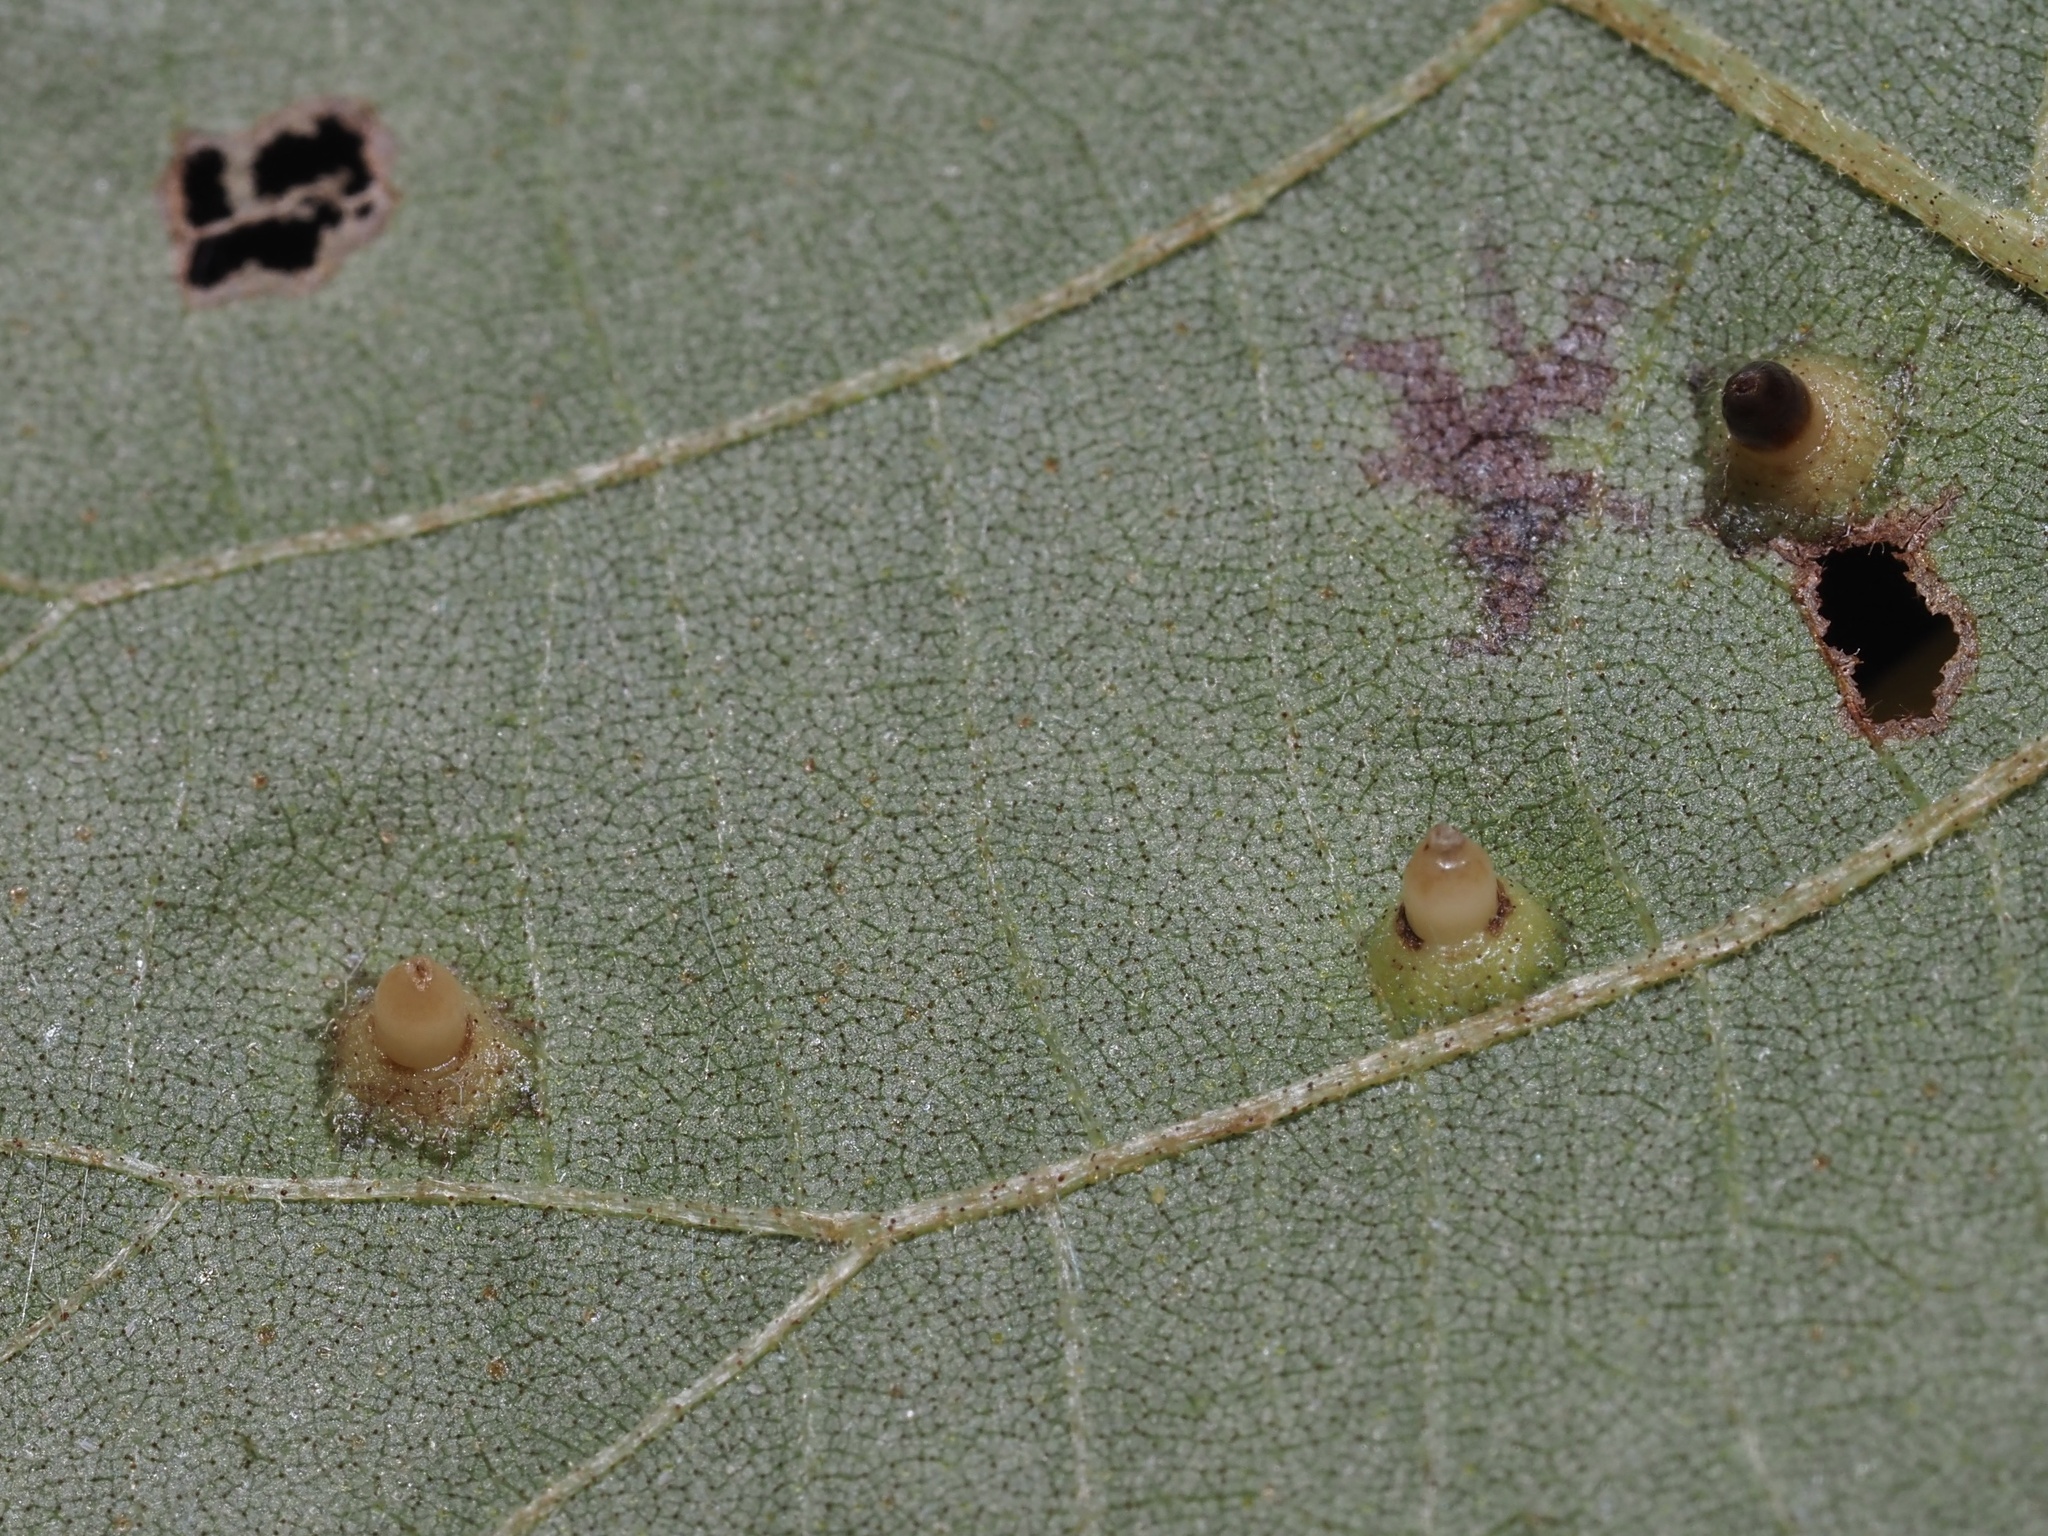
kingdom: Animalia
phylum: Arthropoda
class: Insecta
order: Diptera
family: Cecidomyiidae
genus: Caryomyia
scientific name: Caryomyia tubicola
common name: Hickory bullet gall midge
